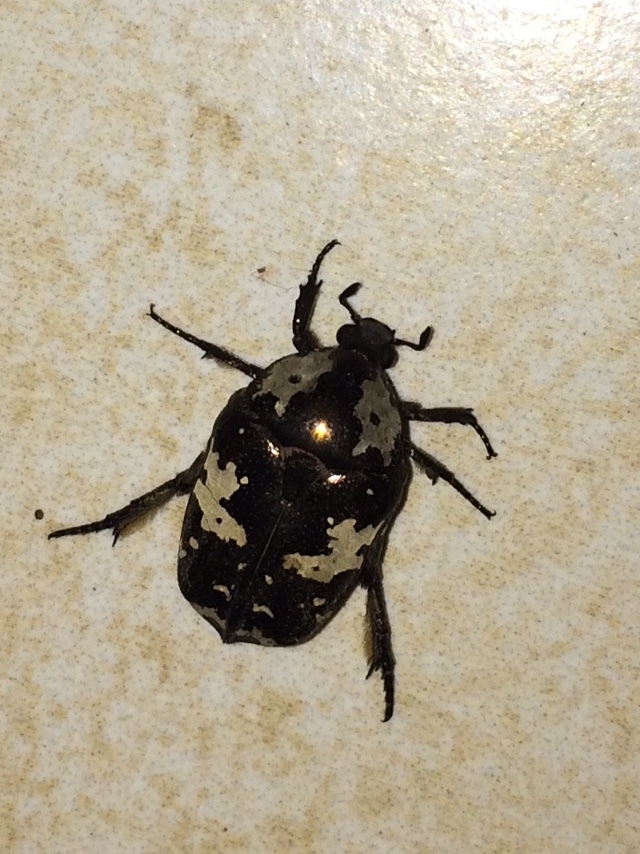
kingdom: Animalia
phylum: Arthropoda
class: Insecta
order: Coleoptera
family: Scarabaeidae
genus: Protaetia
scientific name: Protaetia aurichalcea
